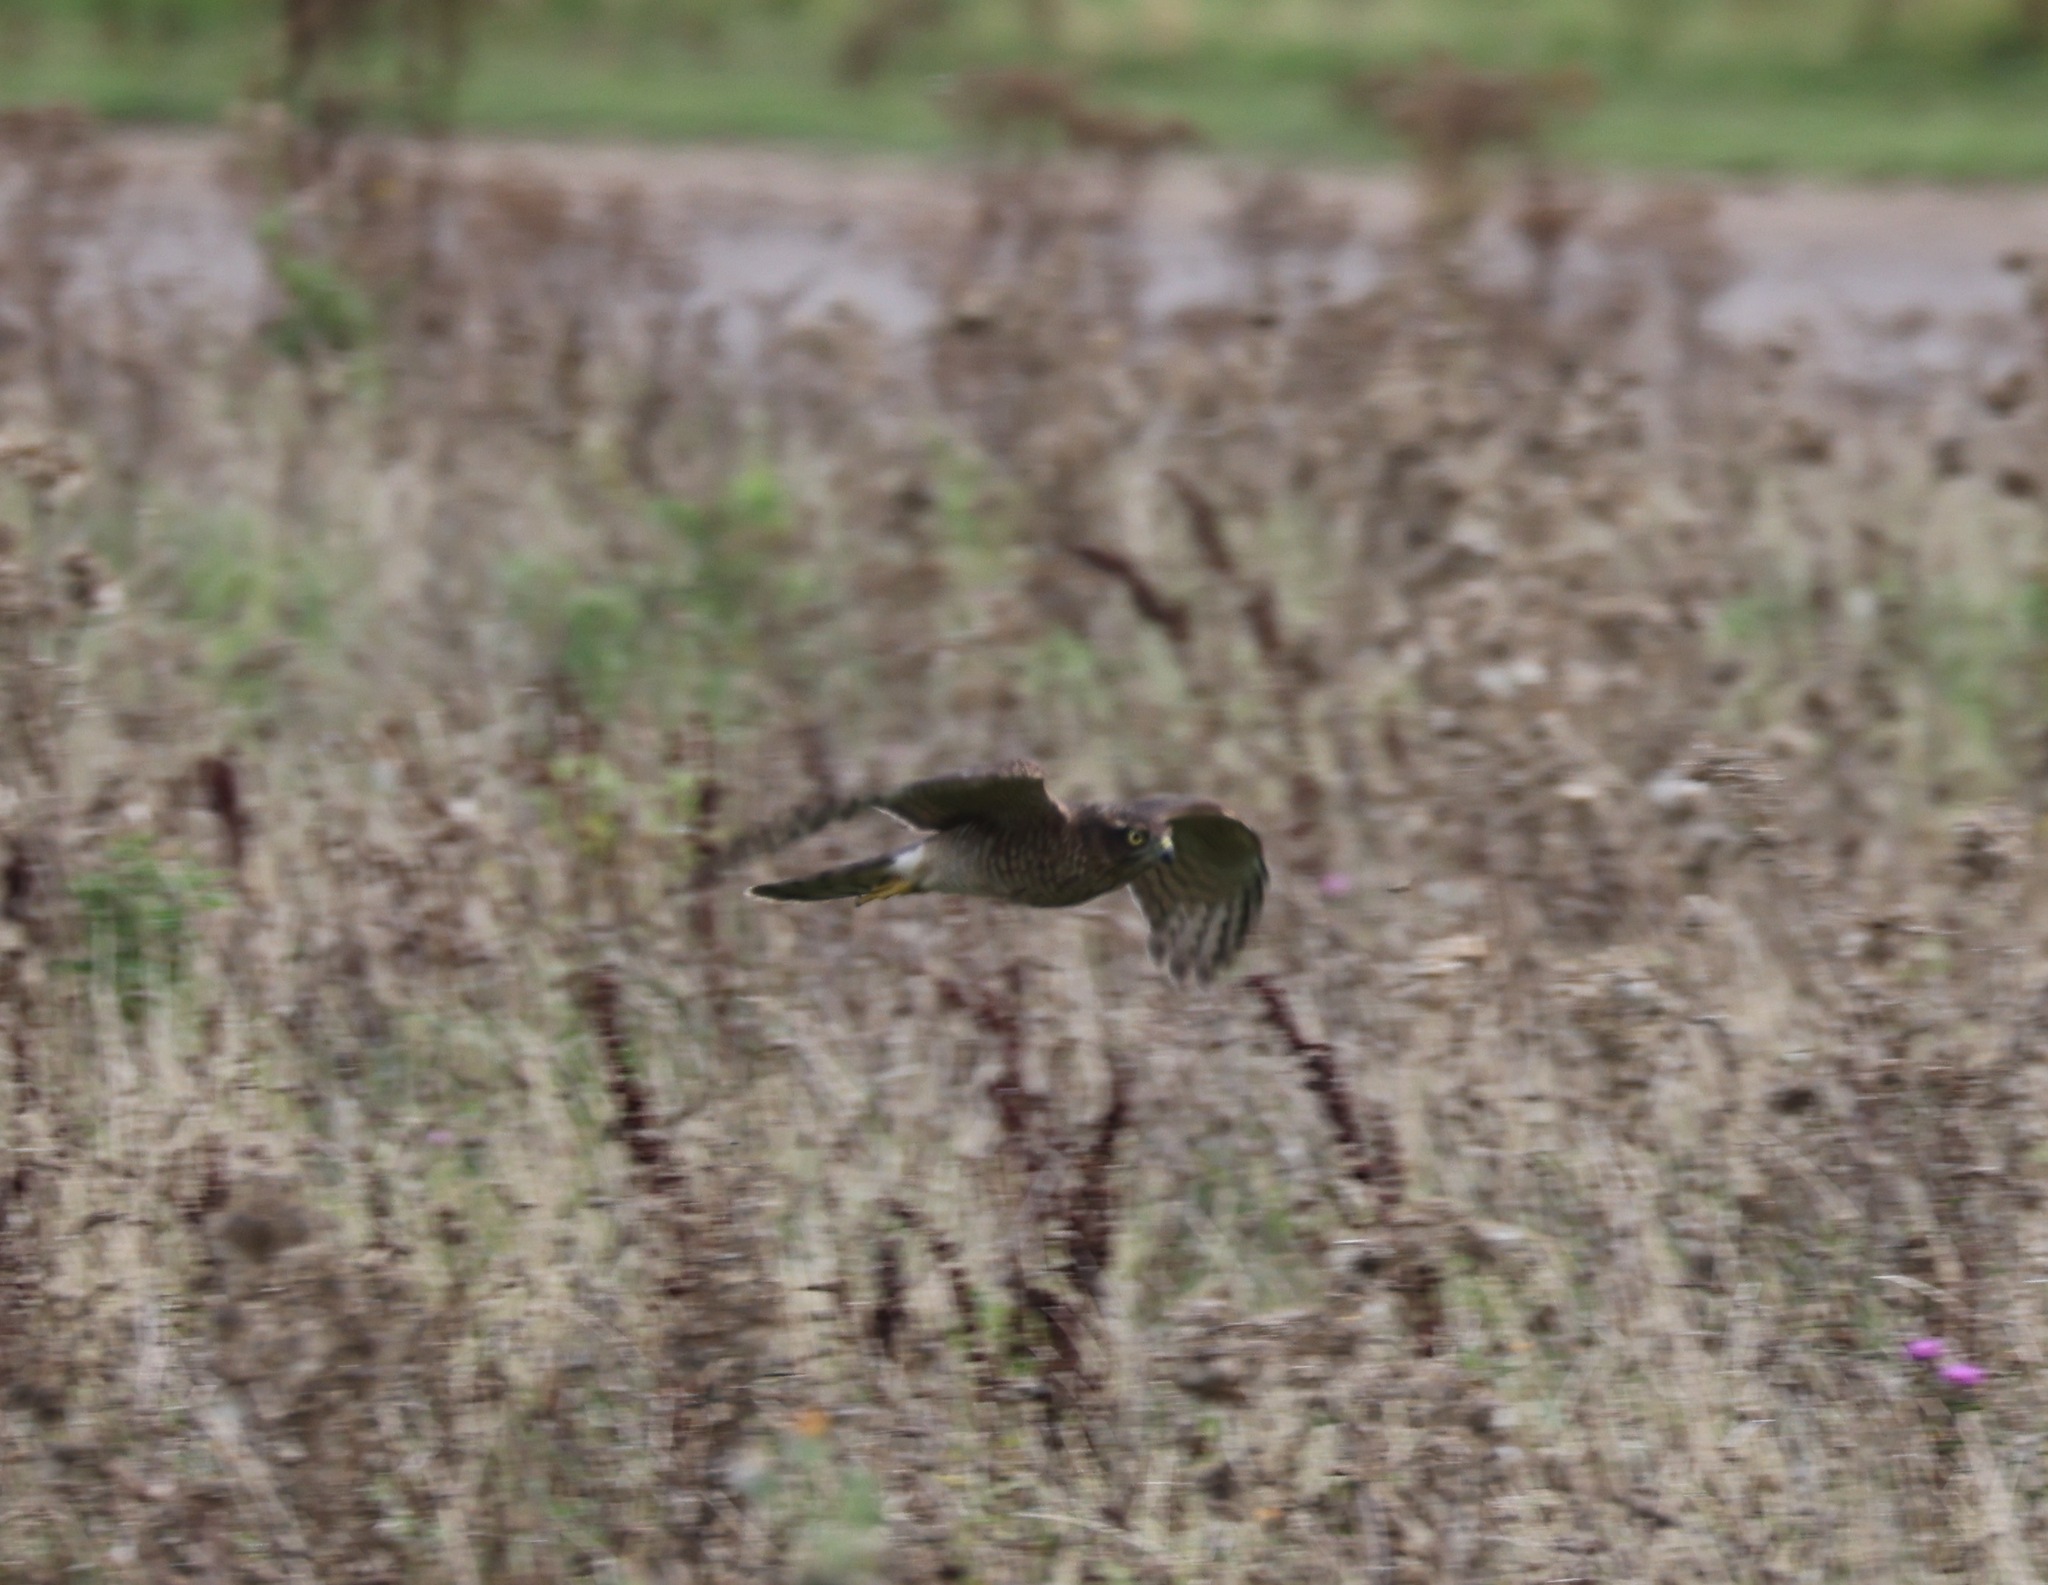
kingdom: Animalia
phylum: Chordata
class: Aves
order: Accipitriformes
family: Accipitridae
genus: Accipiter
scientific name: Accipiter nisus
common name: Eurasian sparrowhawk
